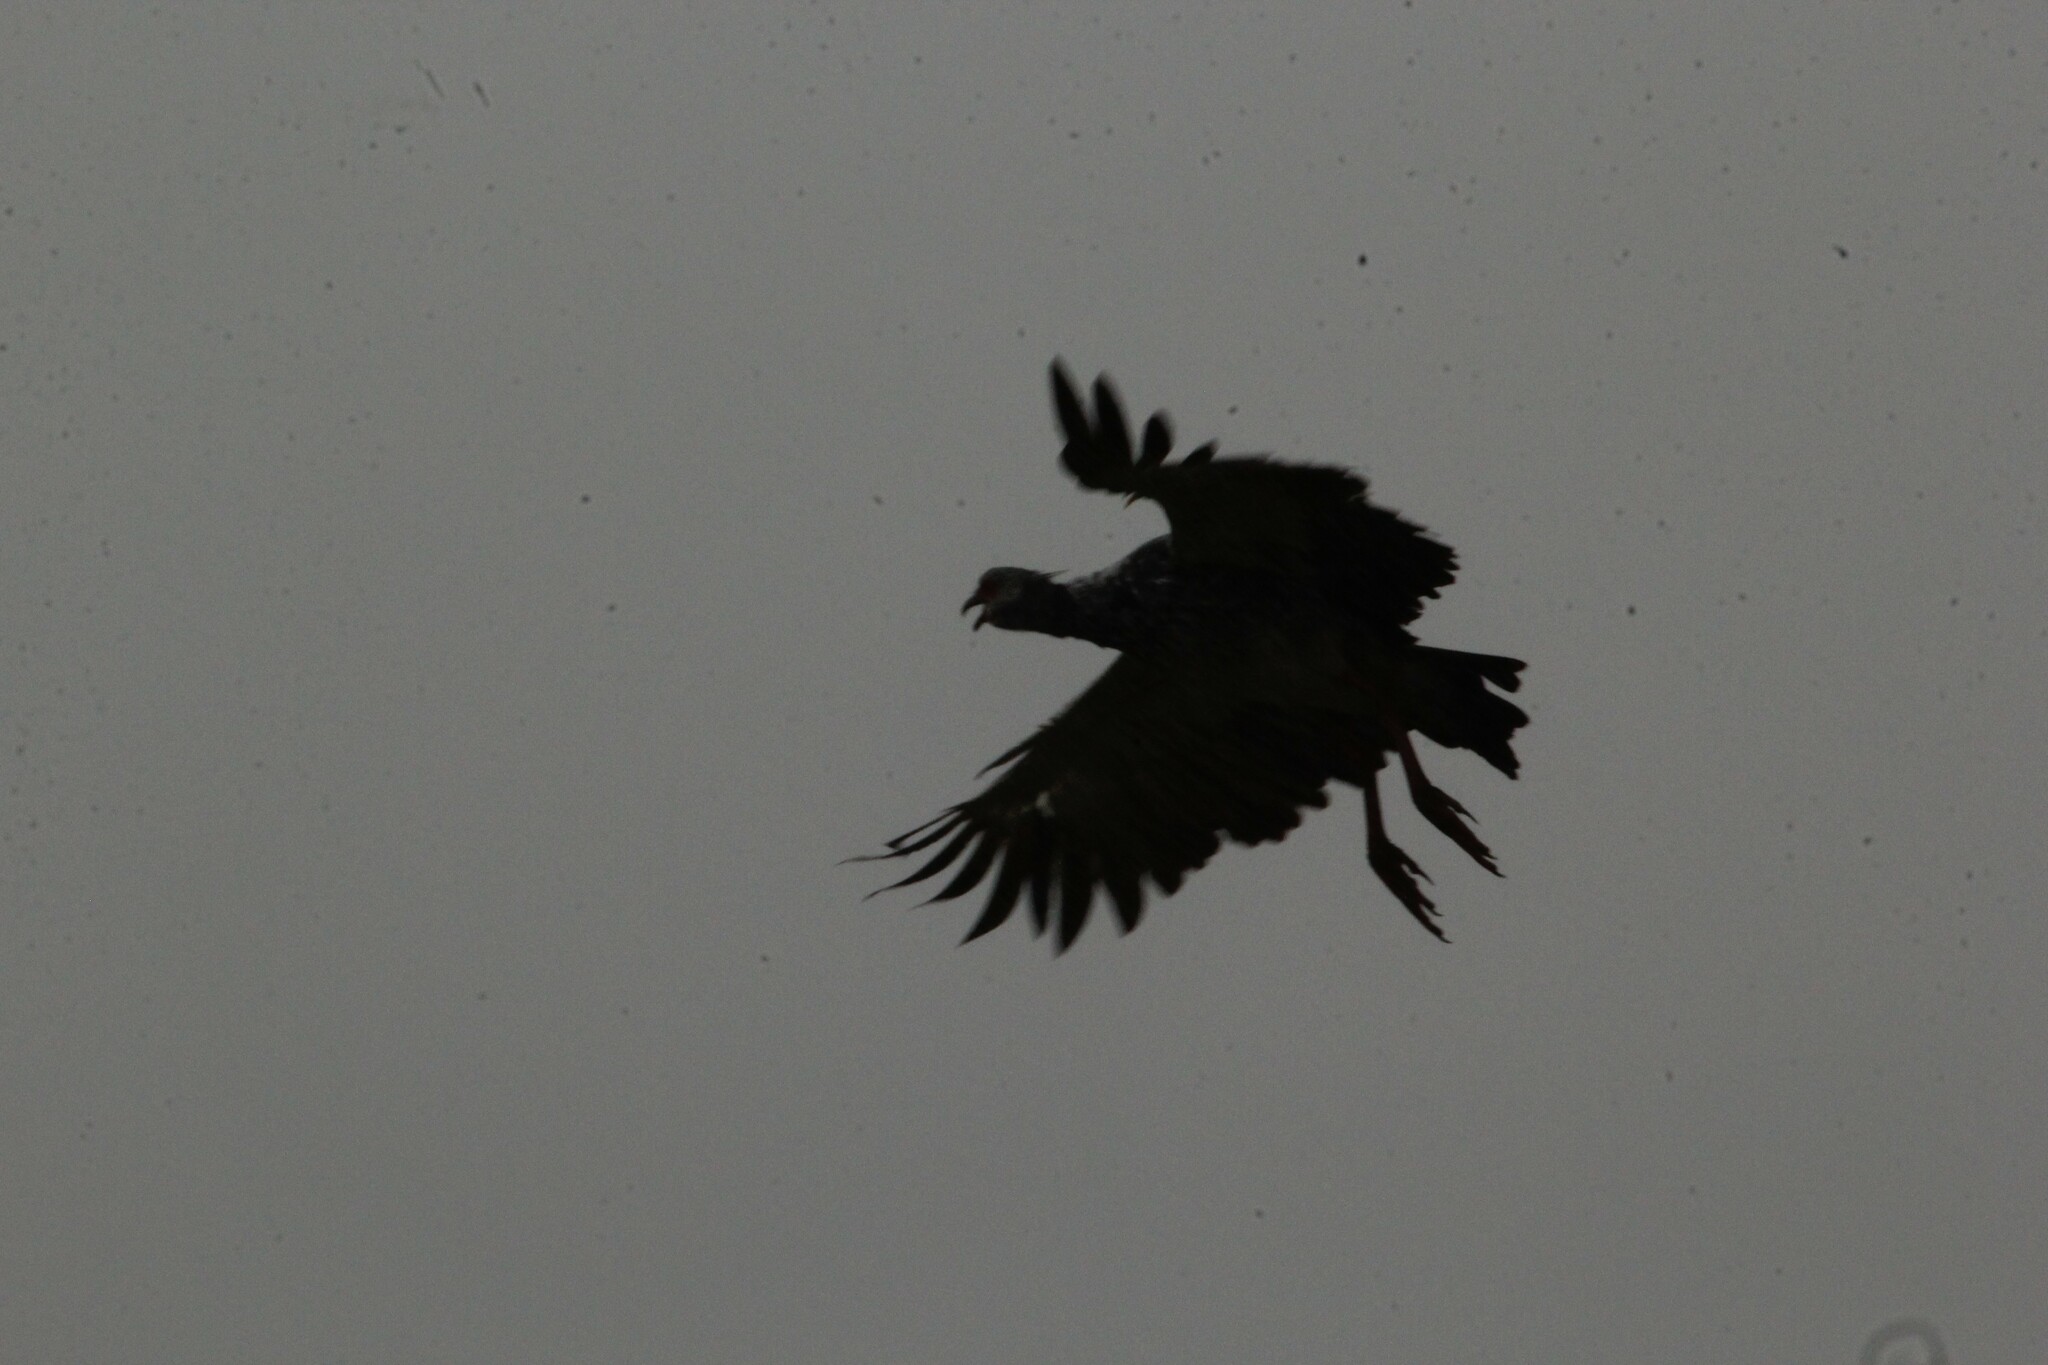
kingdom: Animalia
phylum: Chordata
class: Aves
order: Anseriformes
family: Anhimidae
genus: Chauna
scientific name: Chauna torquata
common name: Southern screamer
